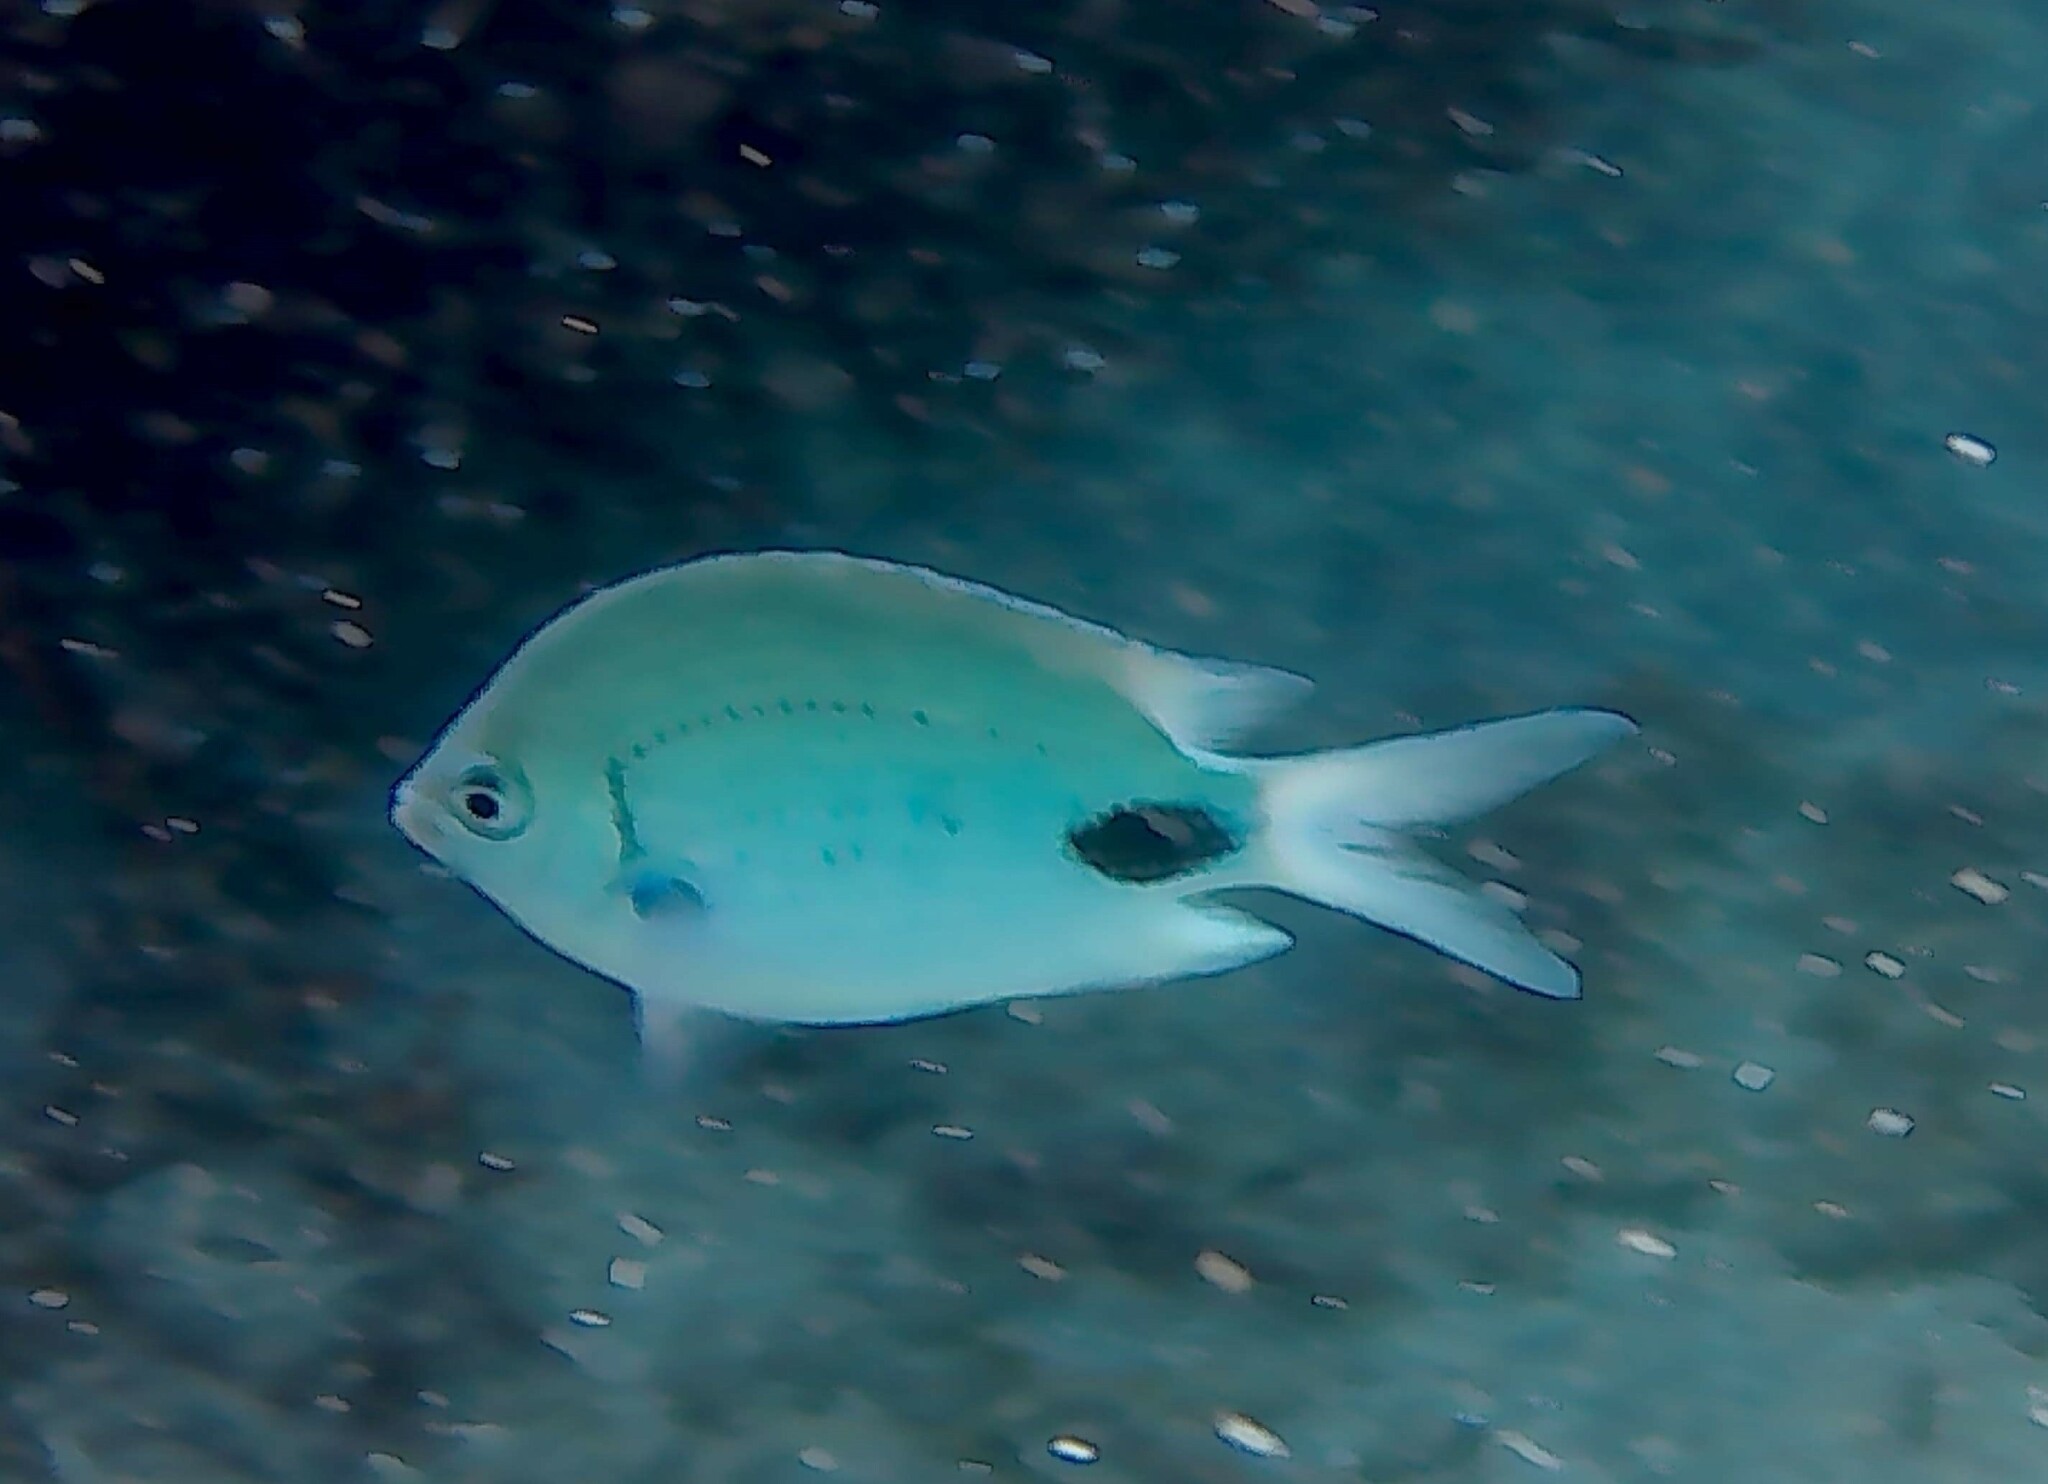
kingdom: Animalia
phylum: Chordata
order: Perciformes
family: Pomacentridae
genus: Abudefduf
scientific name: Abudefduf sparoides
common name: False-eye sergeant
